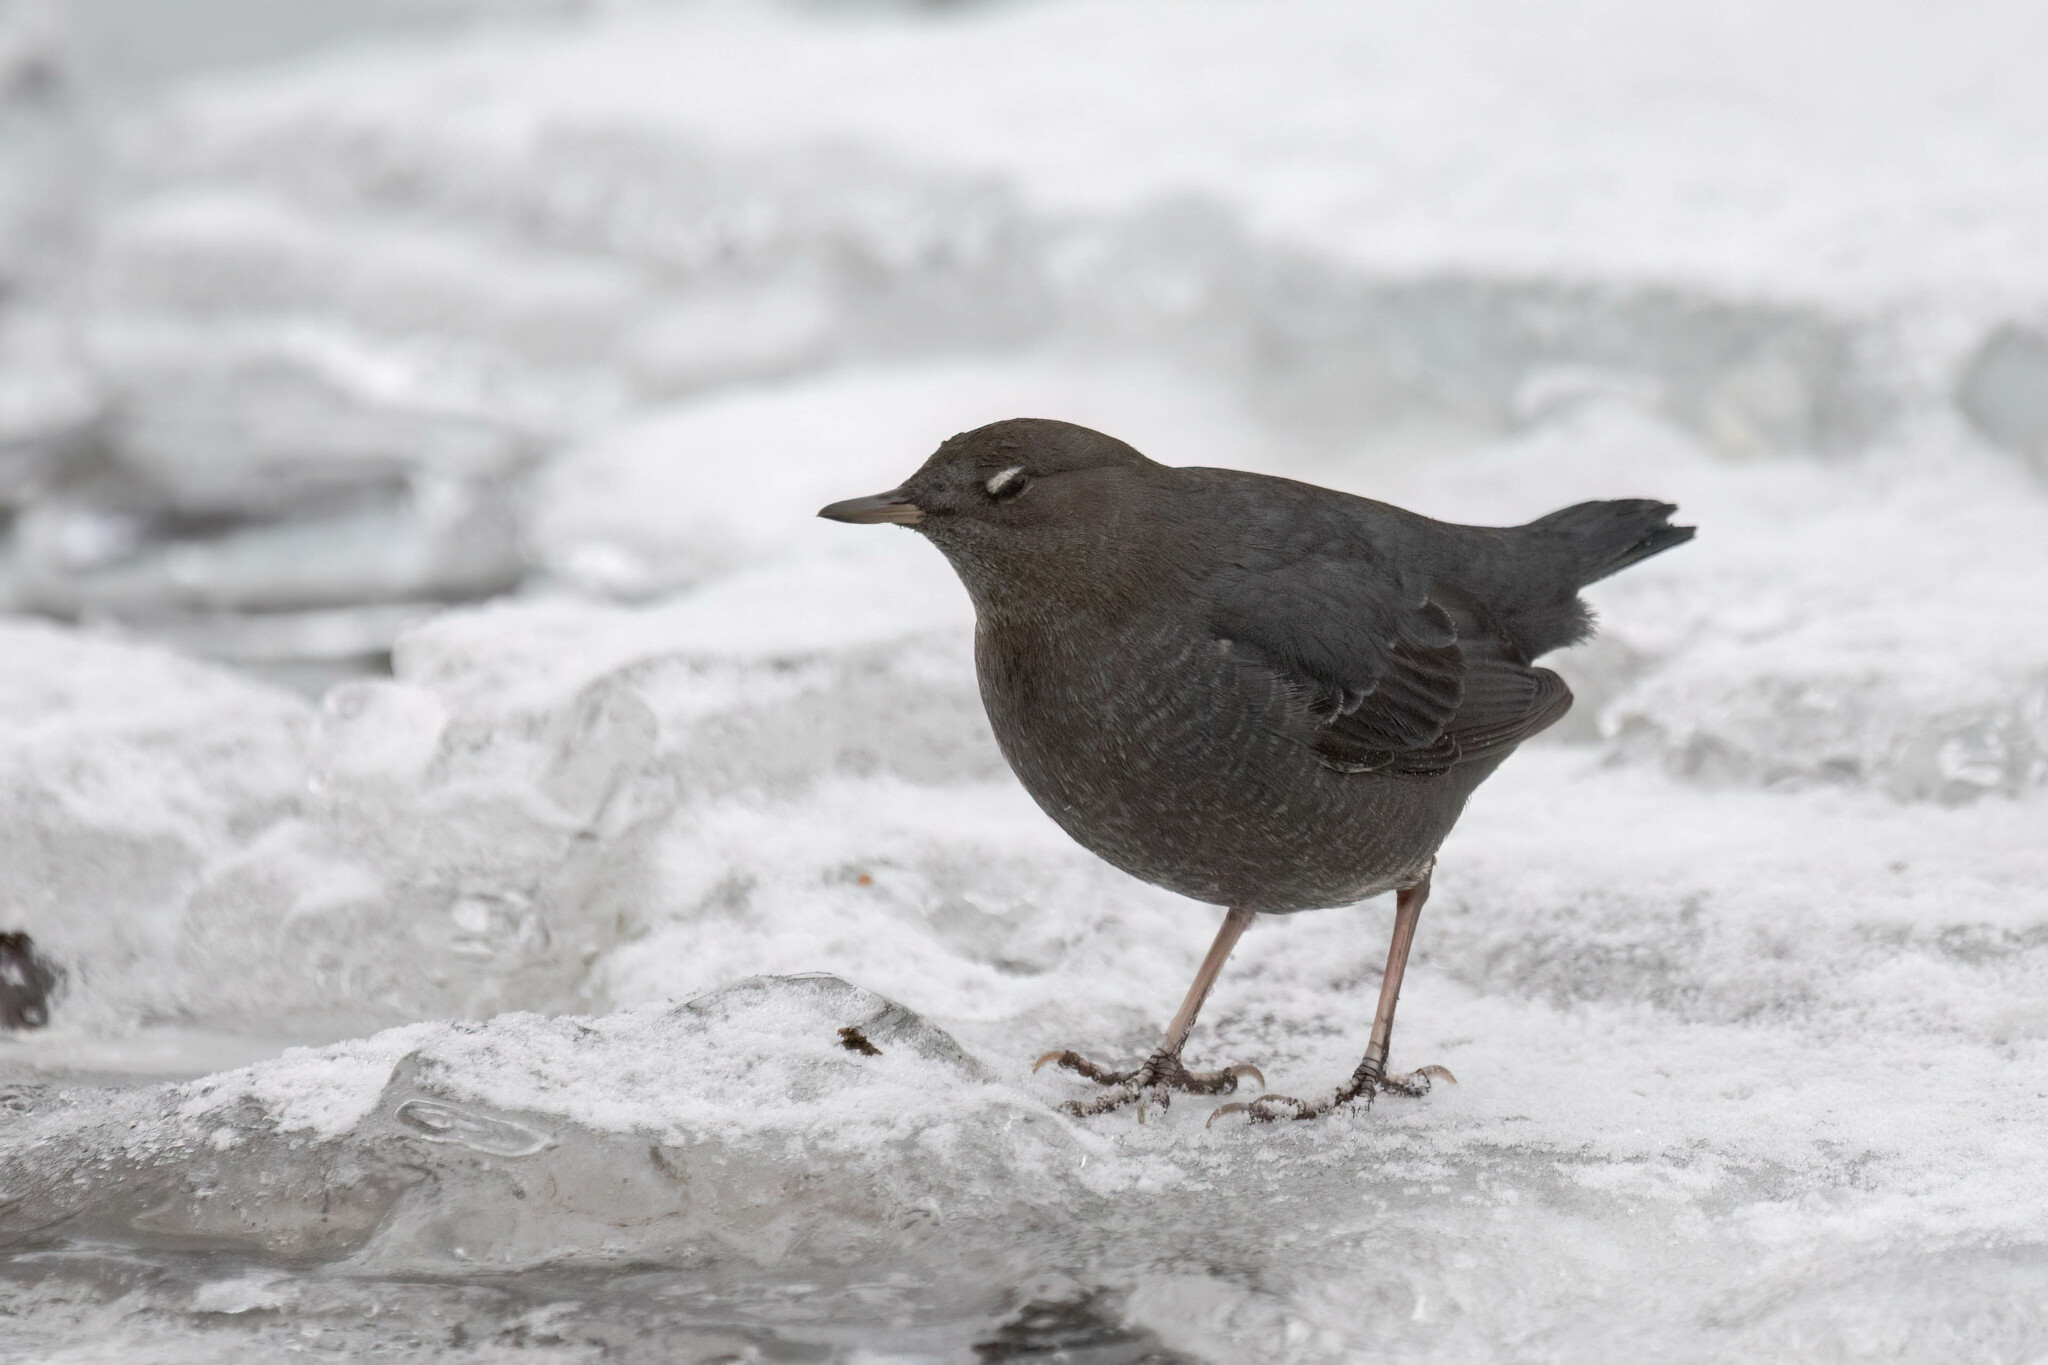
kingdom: Animalia
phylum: Chordata
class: Aves
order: Passeriformes
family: Cinclidae
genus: Cinclus
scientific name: Cinclus mexicanus
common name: American dipper
